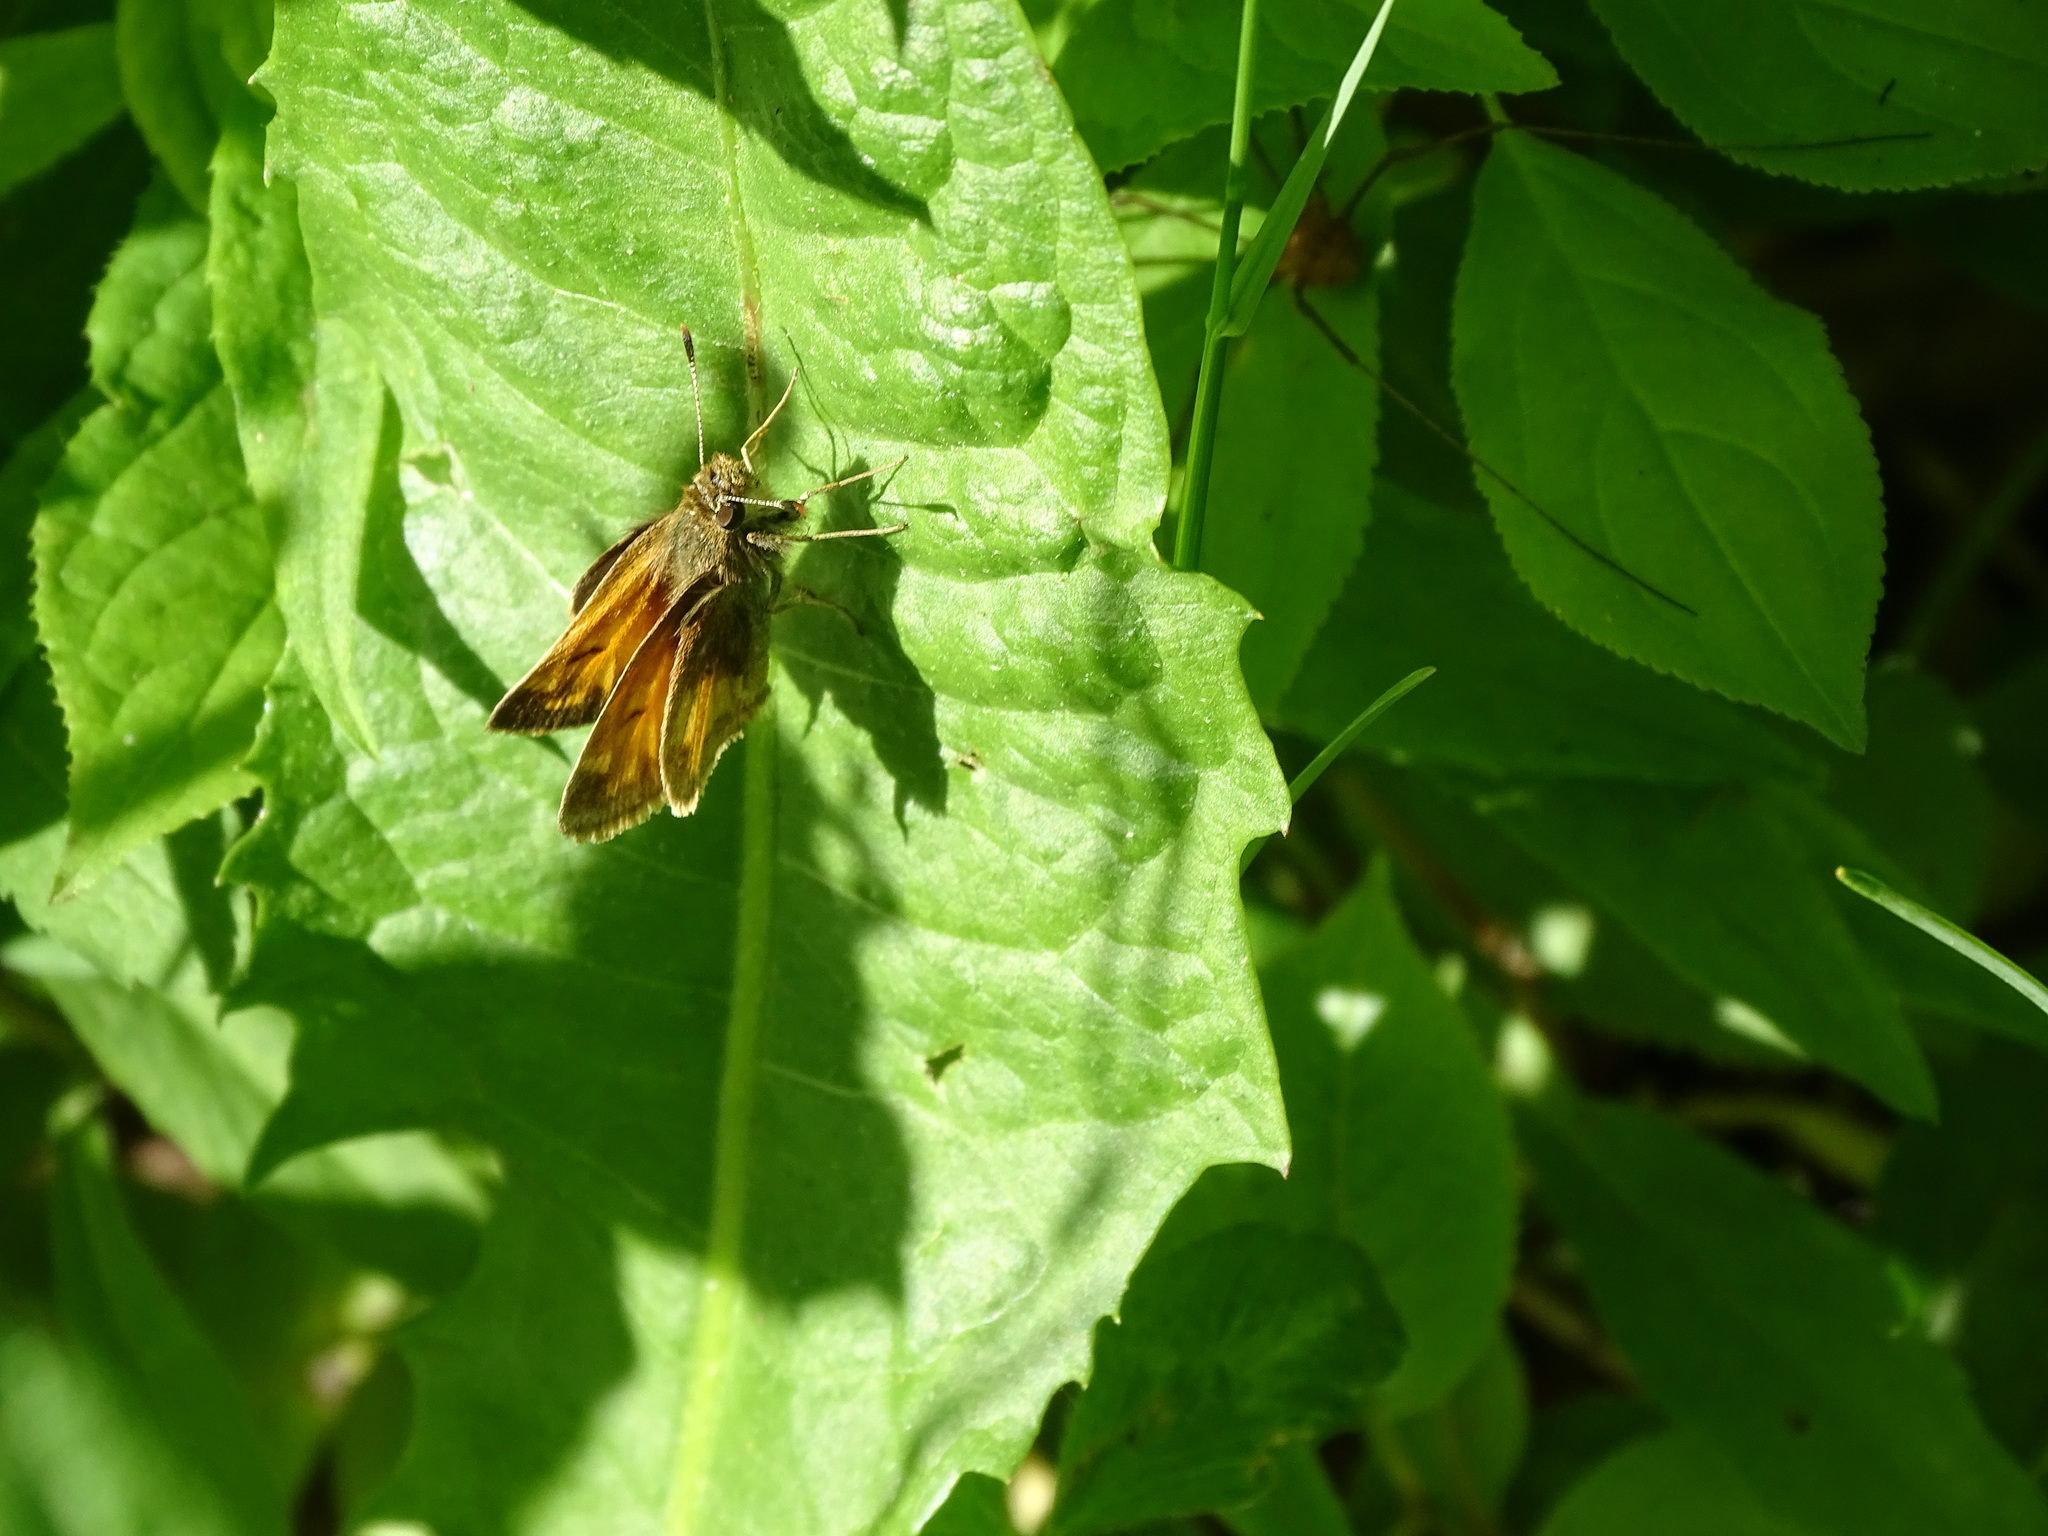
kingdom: Animalia
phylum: Arthropoda
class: Insecta
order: Lepidoptera
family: Hesperiidae
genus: Lon
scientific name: Lon hobomok
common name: Hobomok skipper
